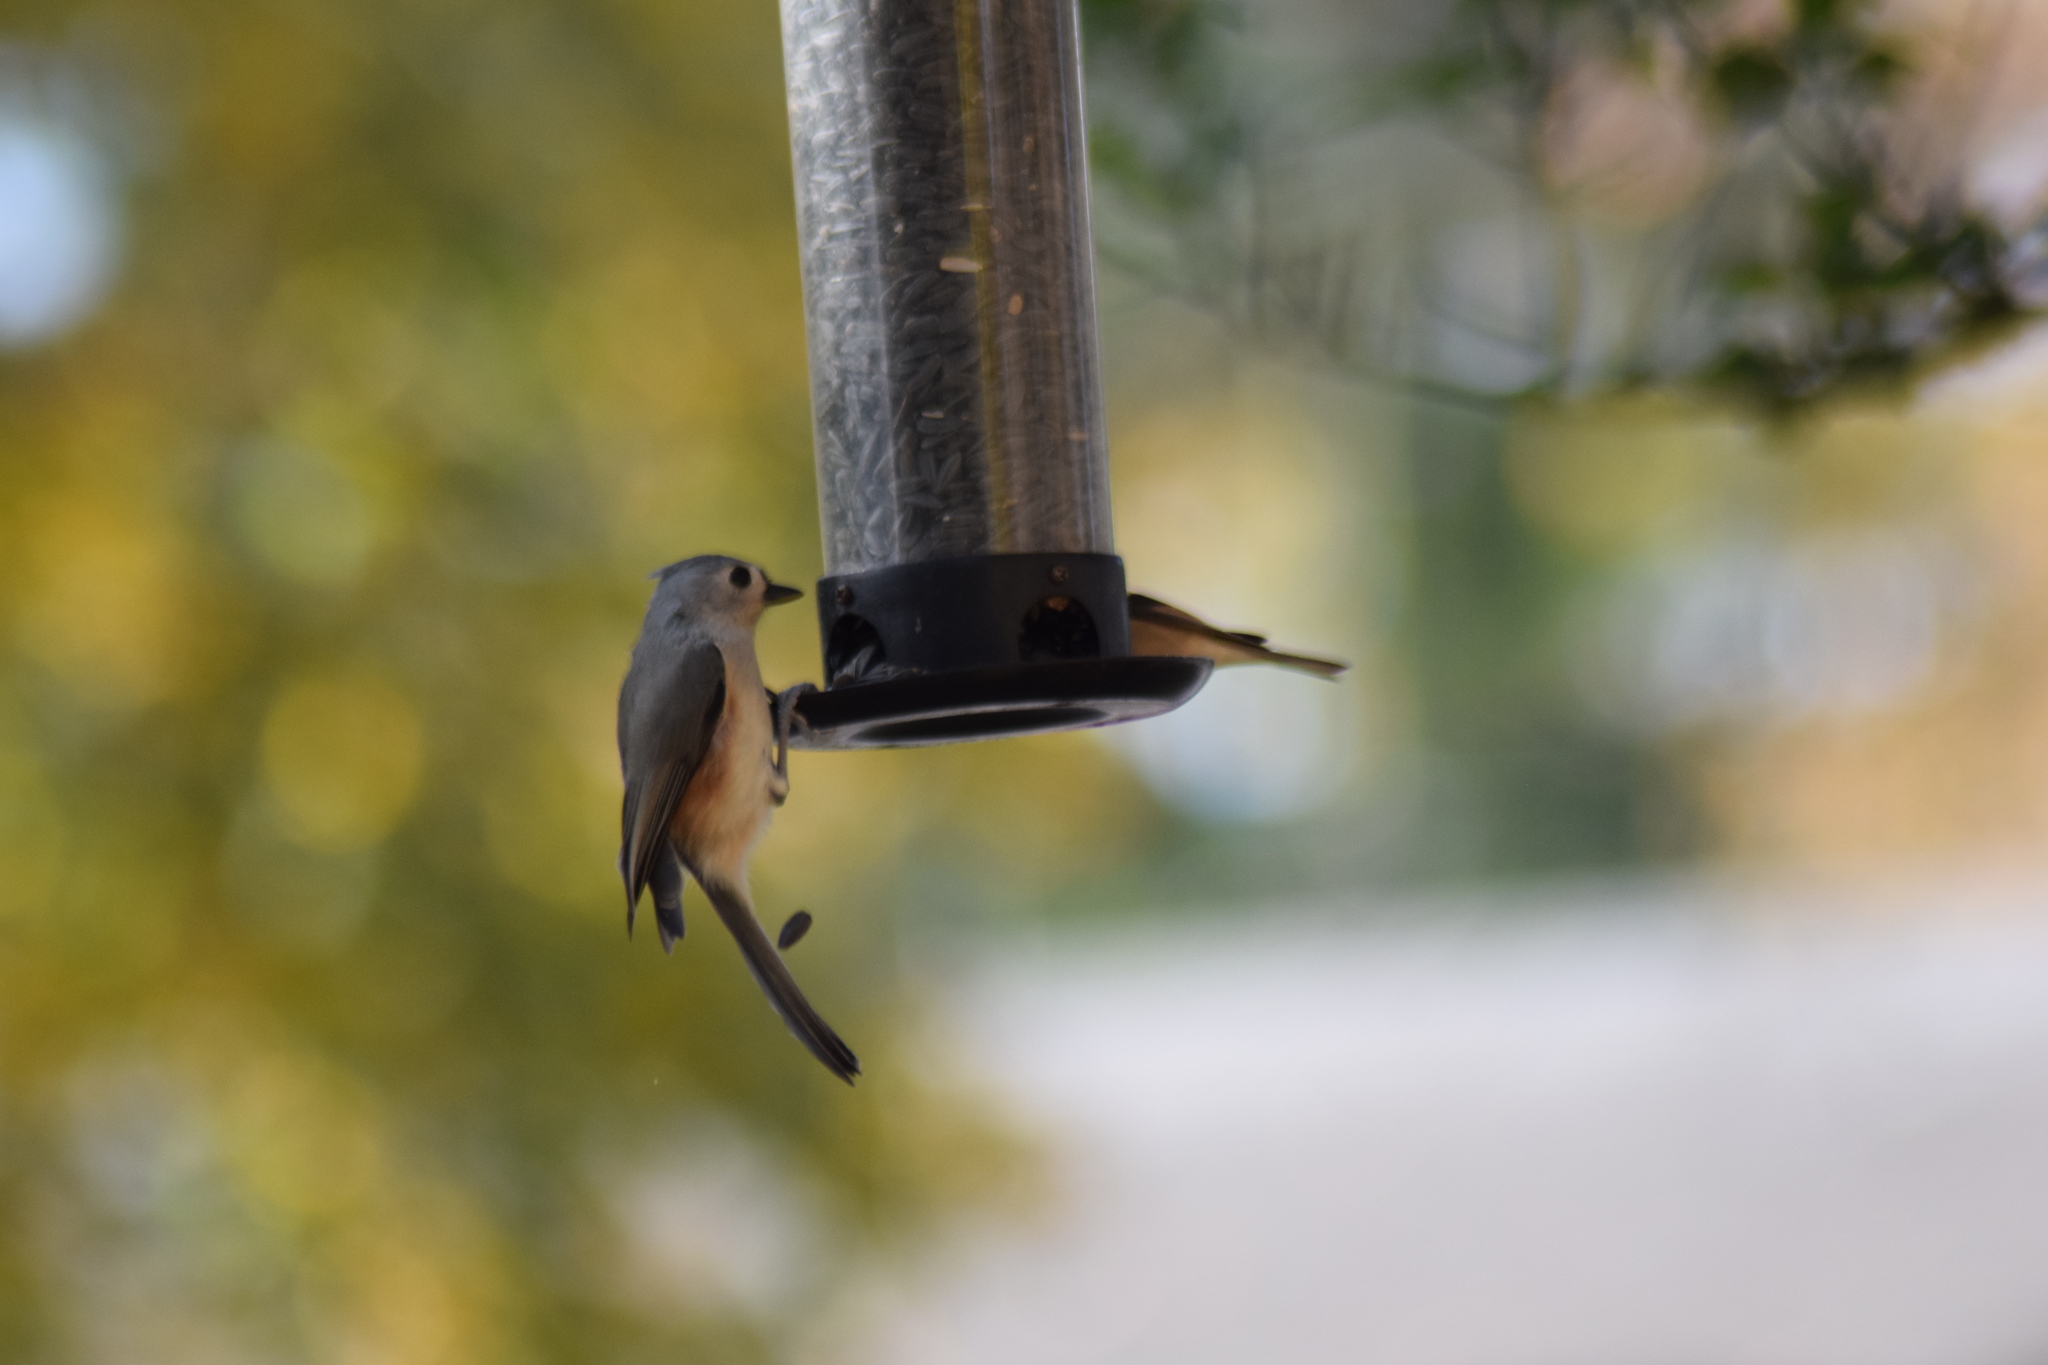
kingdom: Animalia
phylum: Chordata
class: Aves
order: Passeriformes
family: Paridae
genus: Baeolophus
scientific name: Baeolophus bicolor
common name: Tufted titmouse
